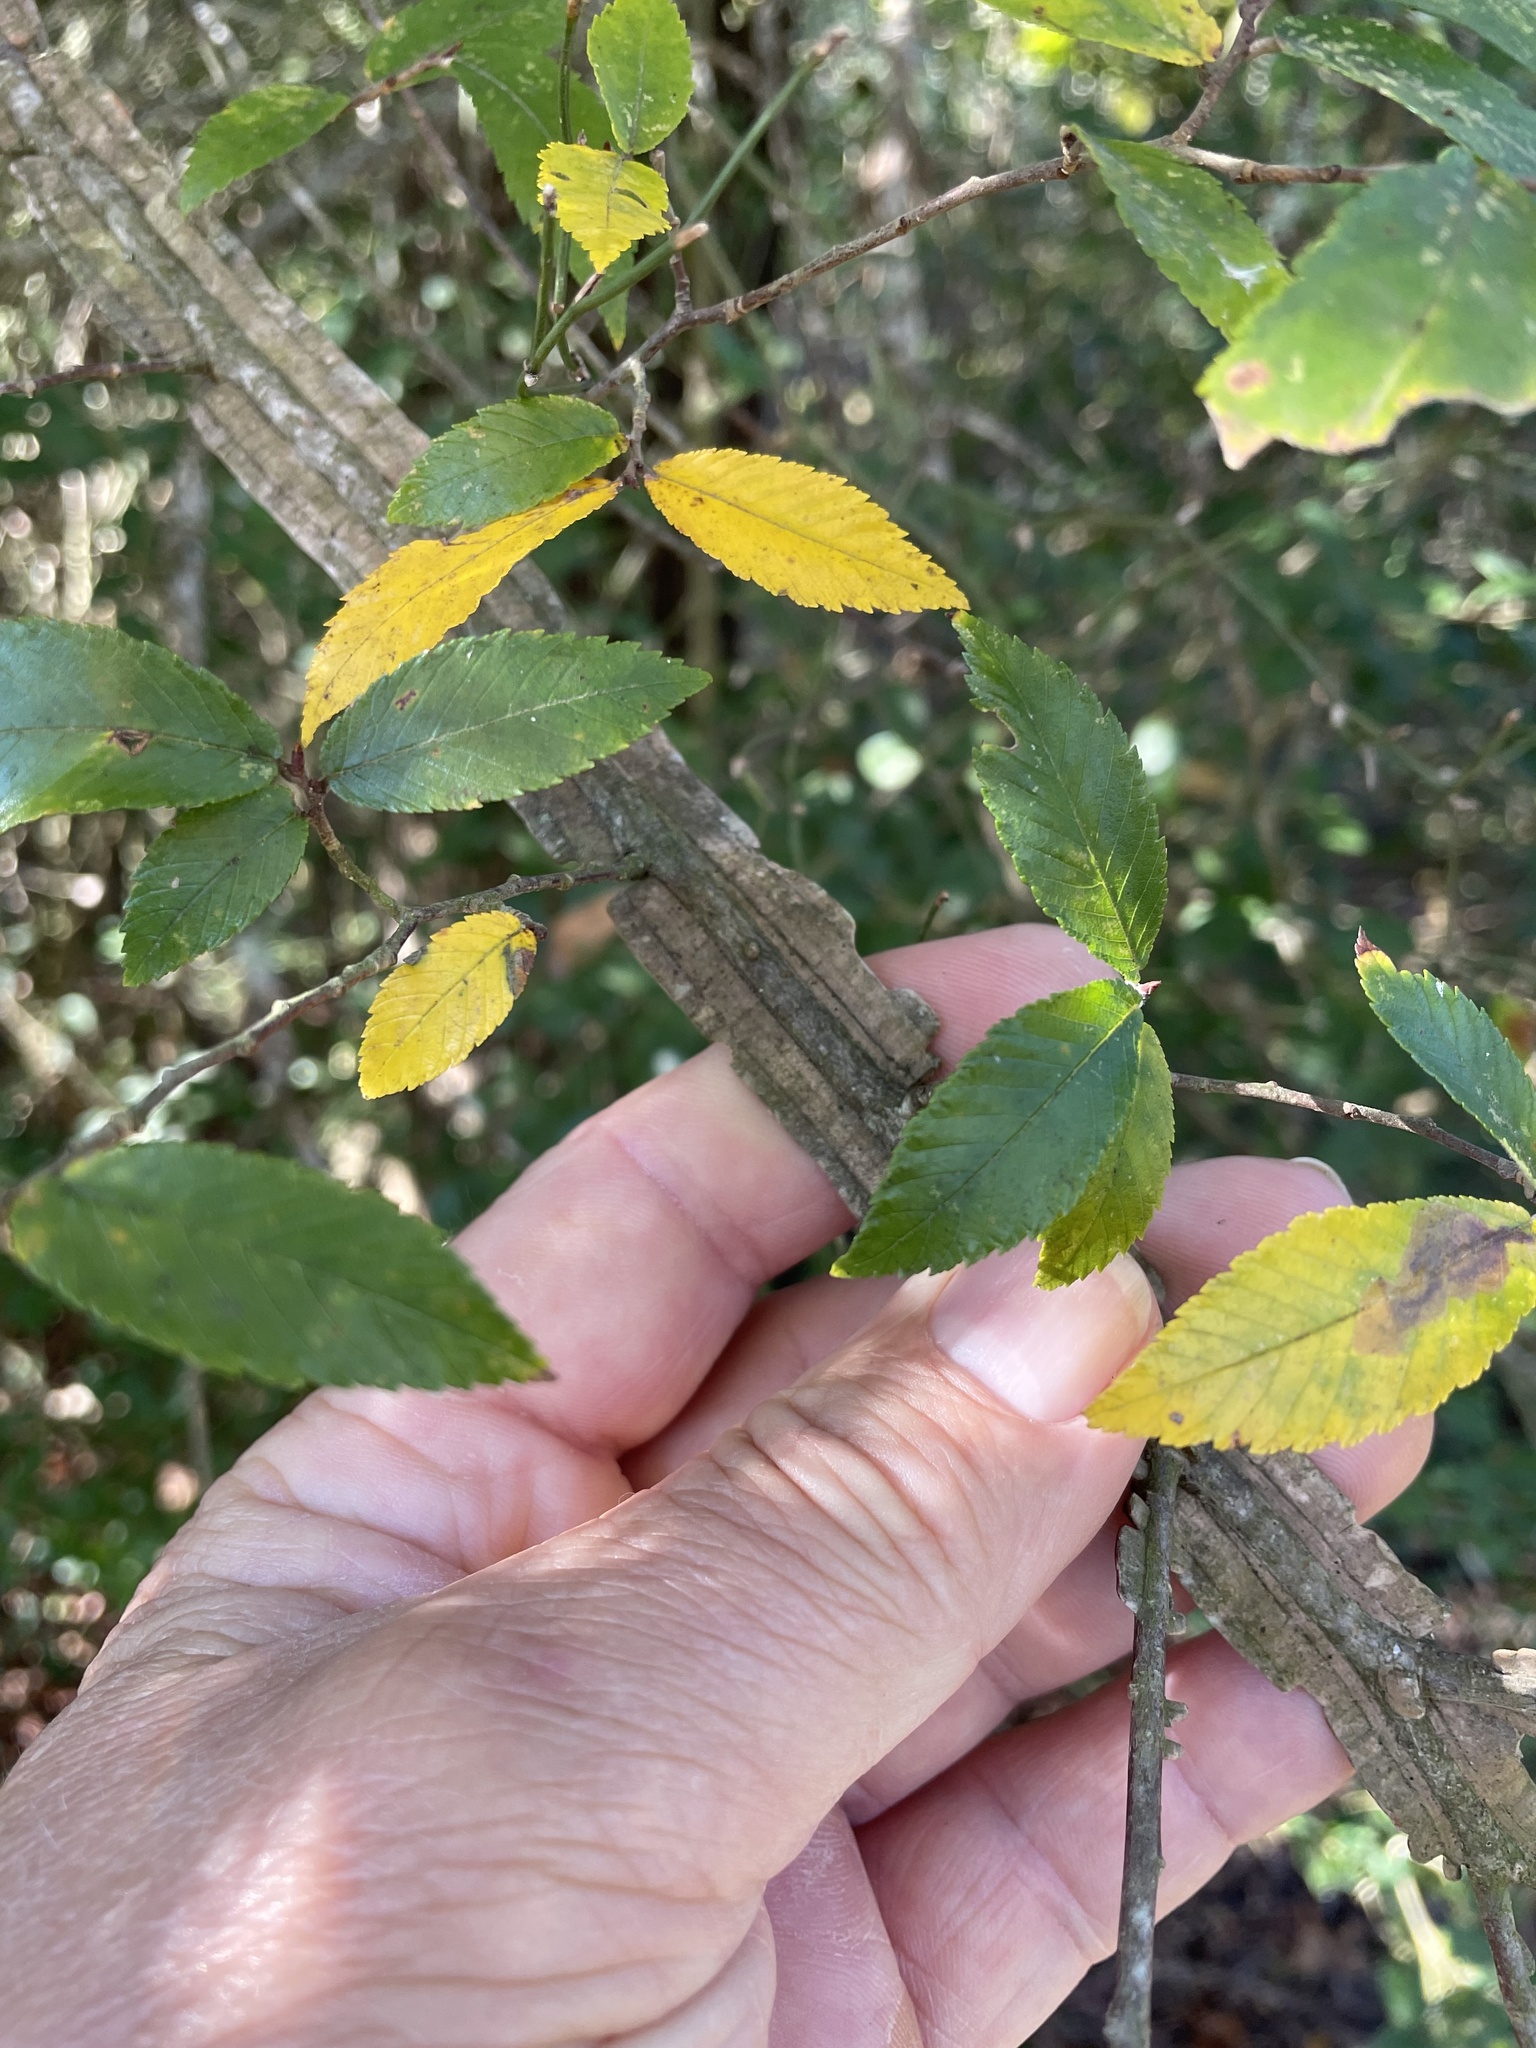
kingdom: Plantae
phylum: Tracheophyta
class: Magnoliopsida
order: Rosales
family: Ulmaceae
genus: Ulmus
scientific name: Ulmus alata
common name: Winged elm
